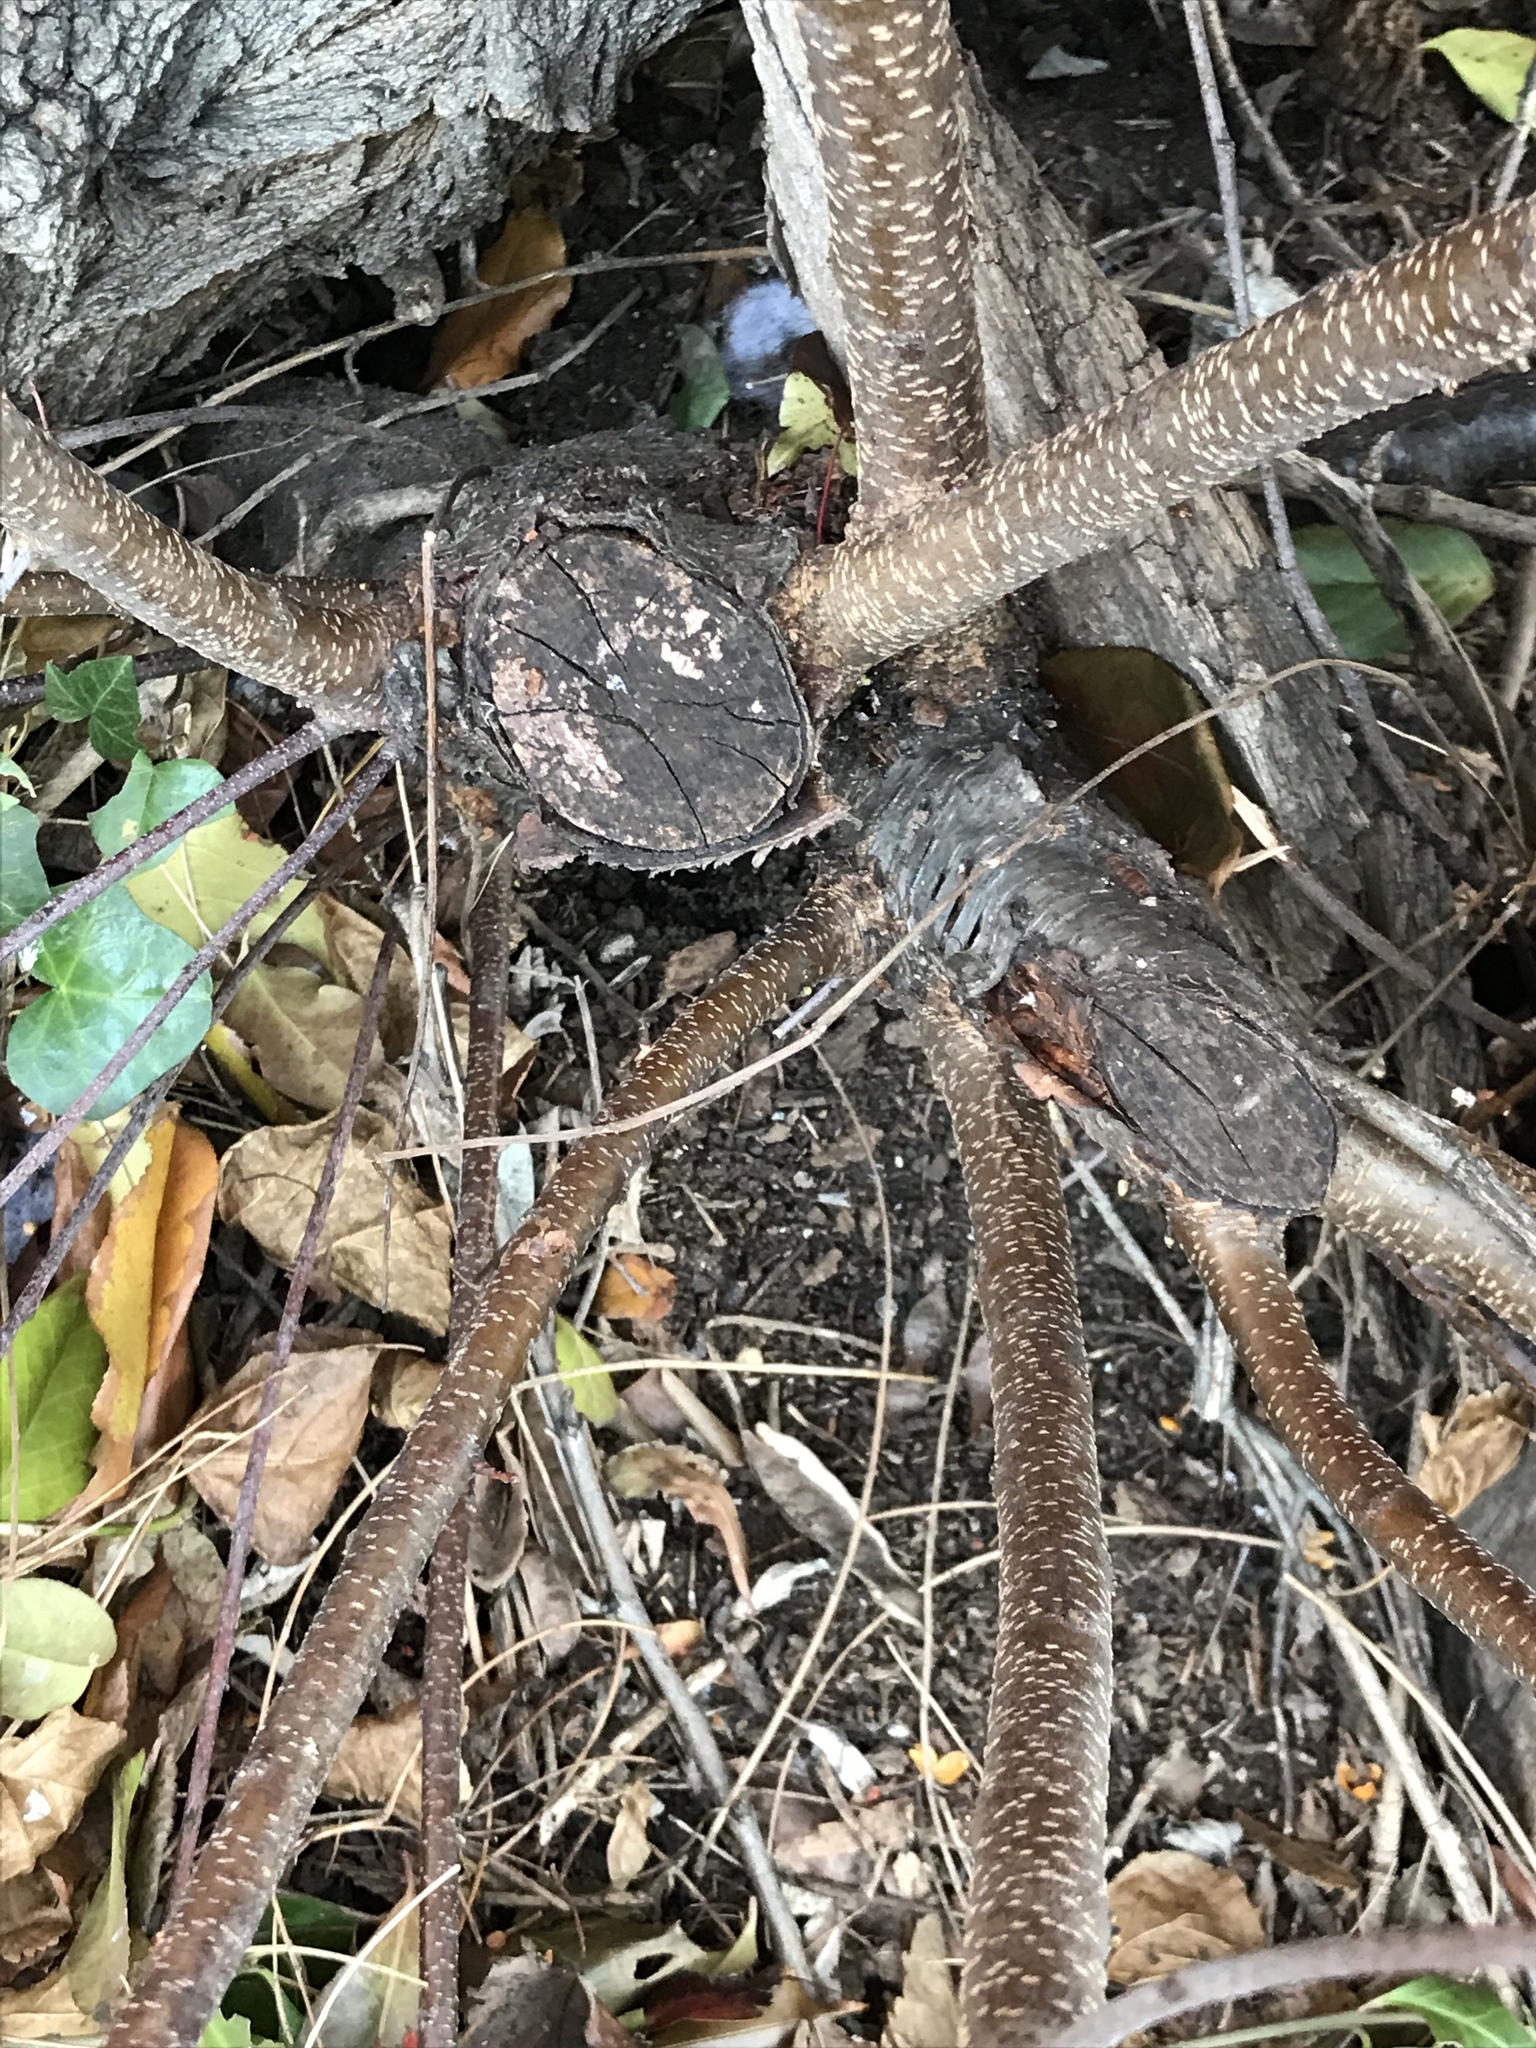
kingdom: Plantae
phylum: Tracheophyta
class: Magnoliopsida
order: Rosales
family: Rosaceae
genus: Prunus
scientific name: Prunus serotina
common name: Black cherry
